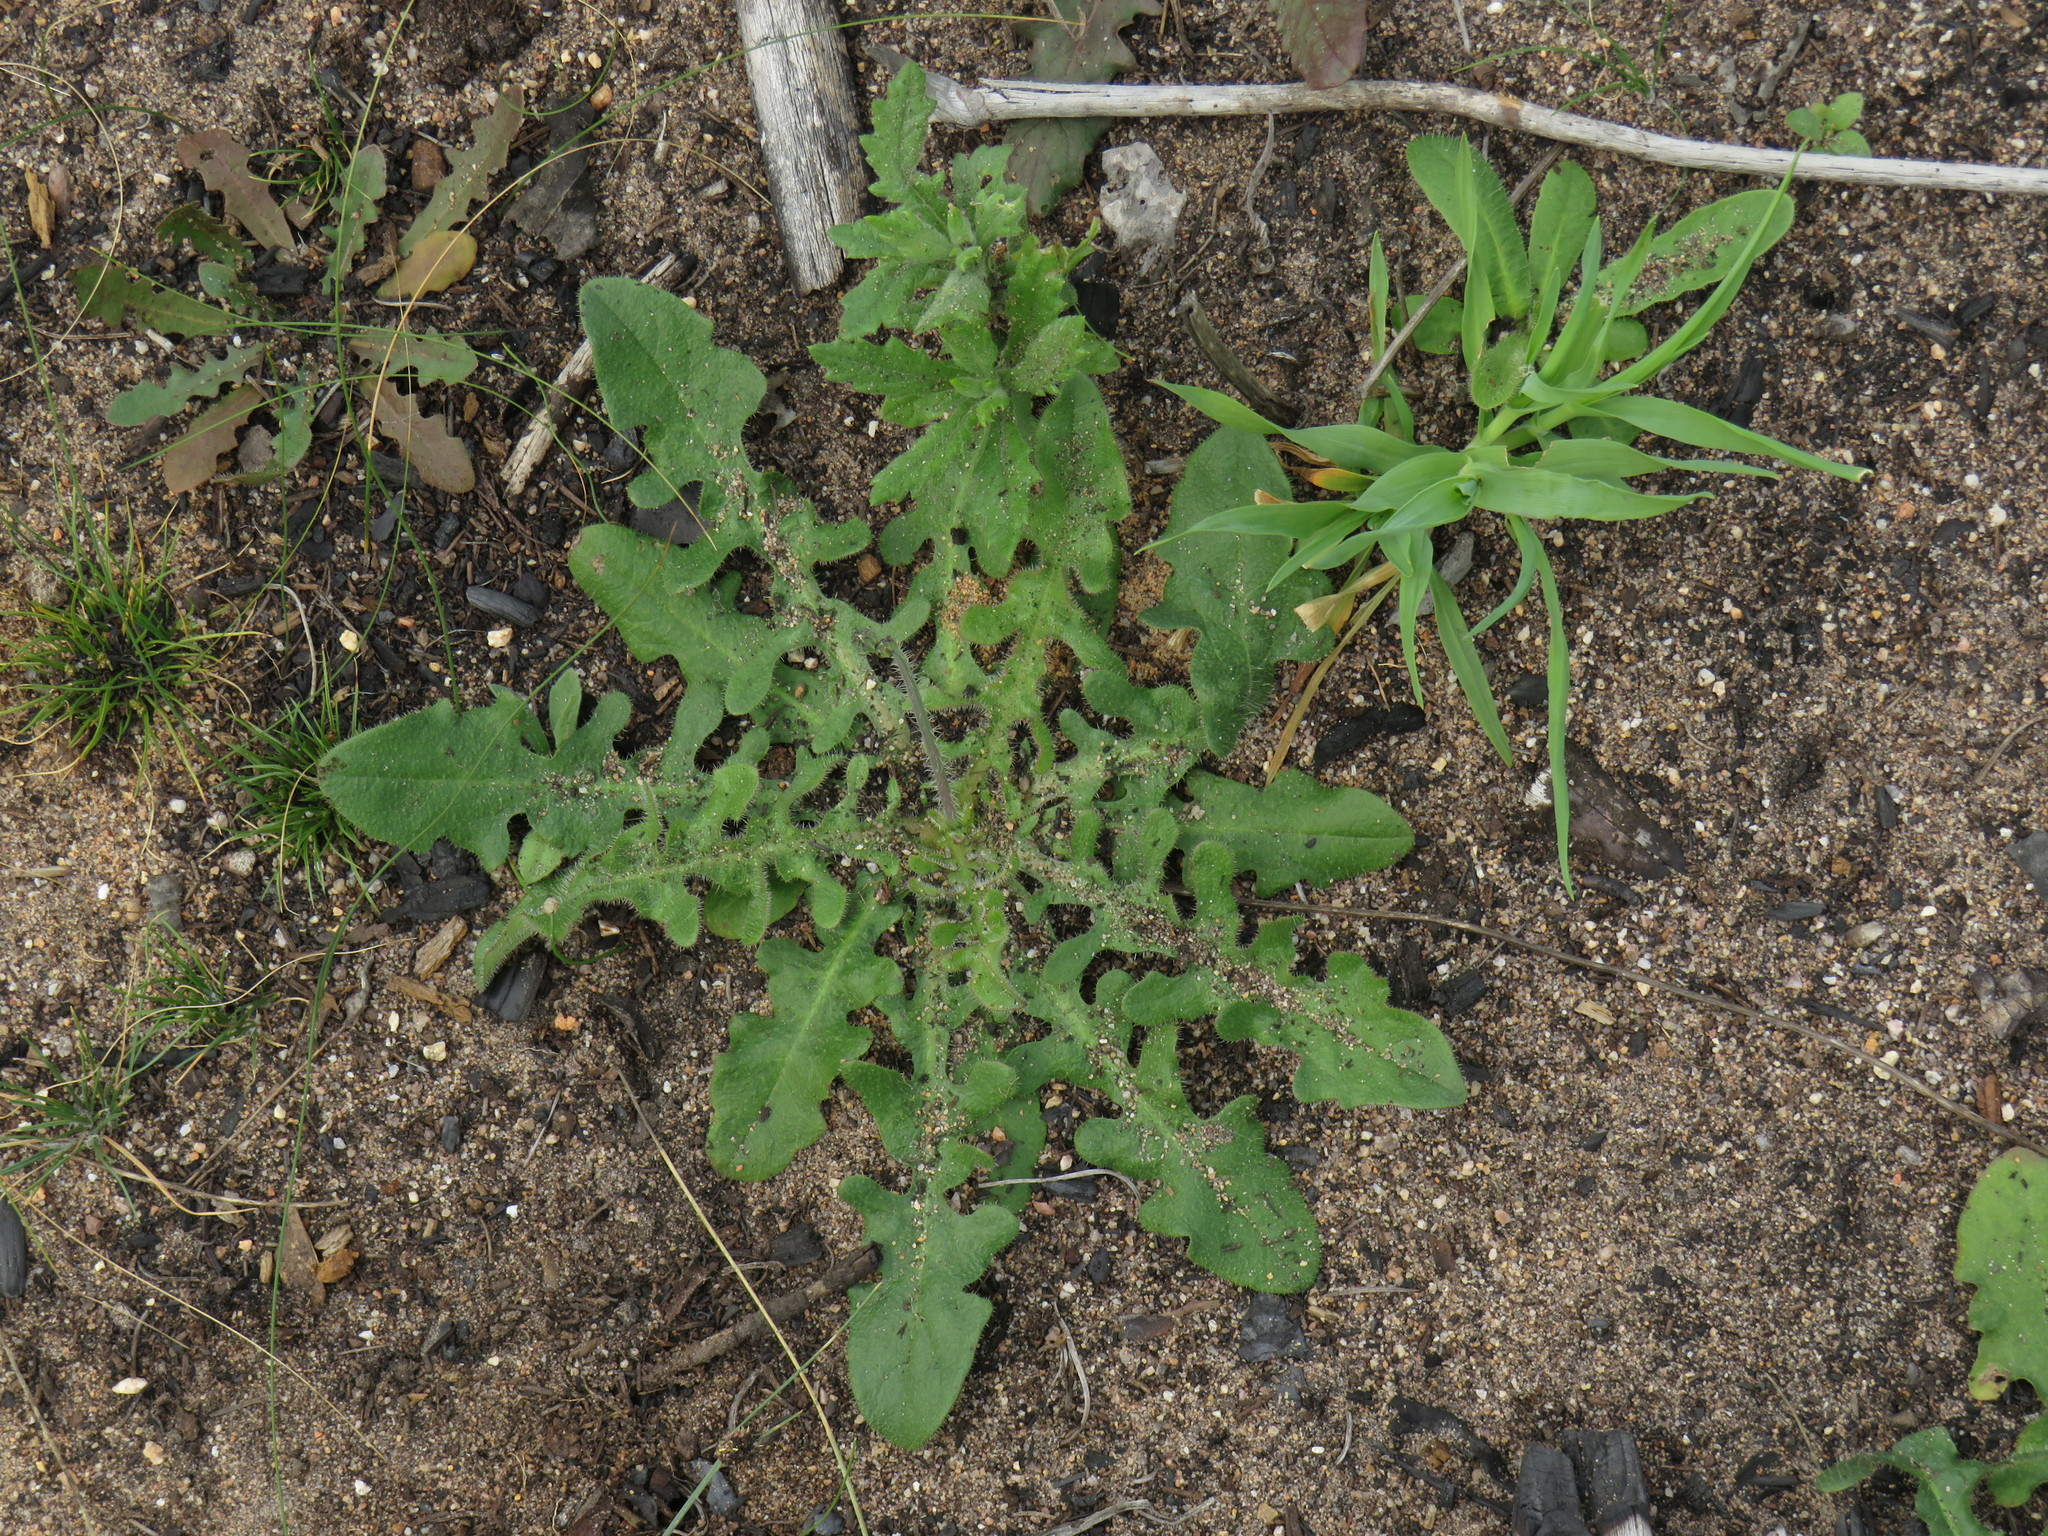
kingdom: Plantae
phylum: Tracheophyta
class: Magnoliopsida
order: Asterales
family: Asteraceae
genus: Hypochaeris
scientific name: Hypochaeris radicata
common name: Flatweed
